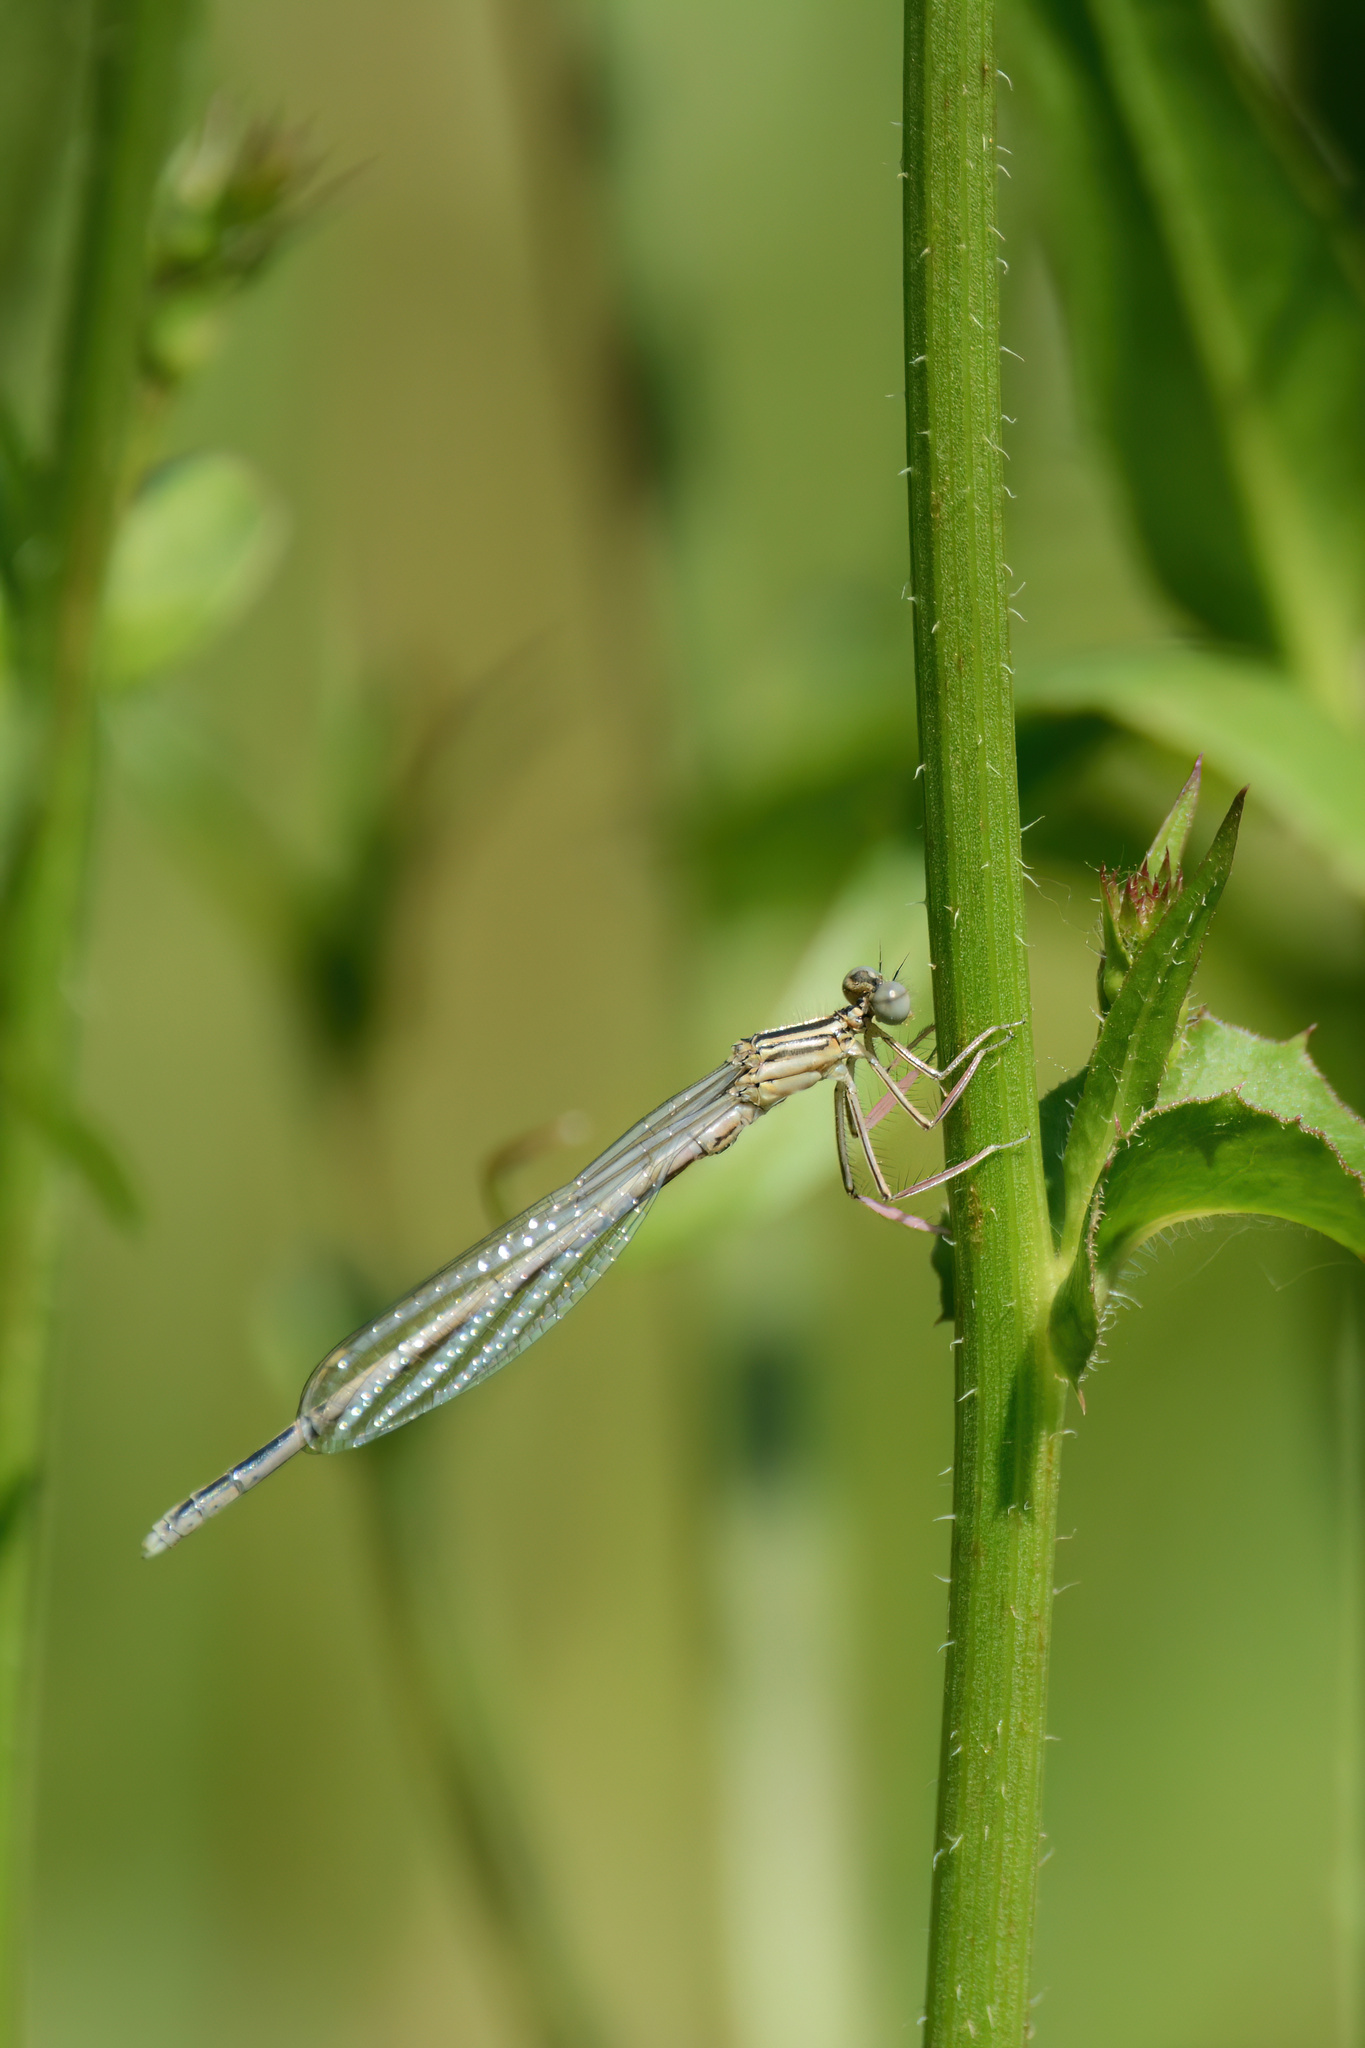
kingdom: Animalia
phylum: Arthropoda
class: Insecta
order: Odonata
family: Platycnemididae
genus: Platycnemis
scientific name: Platycnemis pennipes
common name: White-legged damselfly
